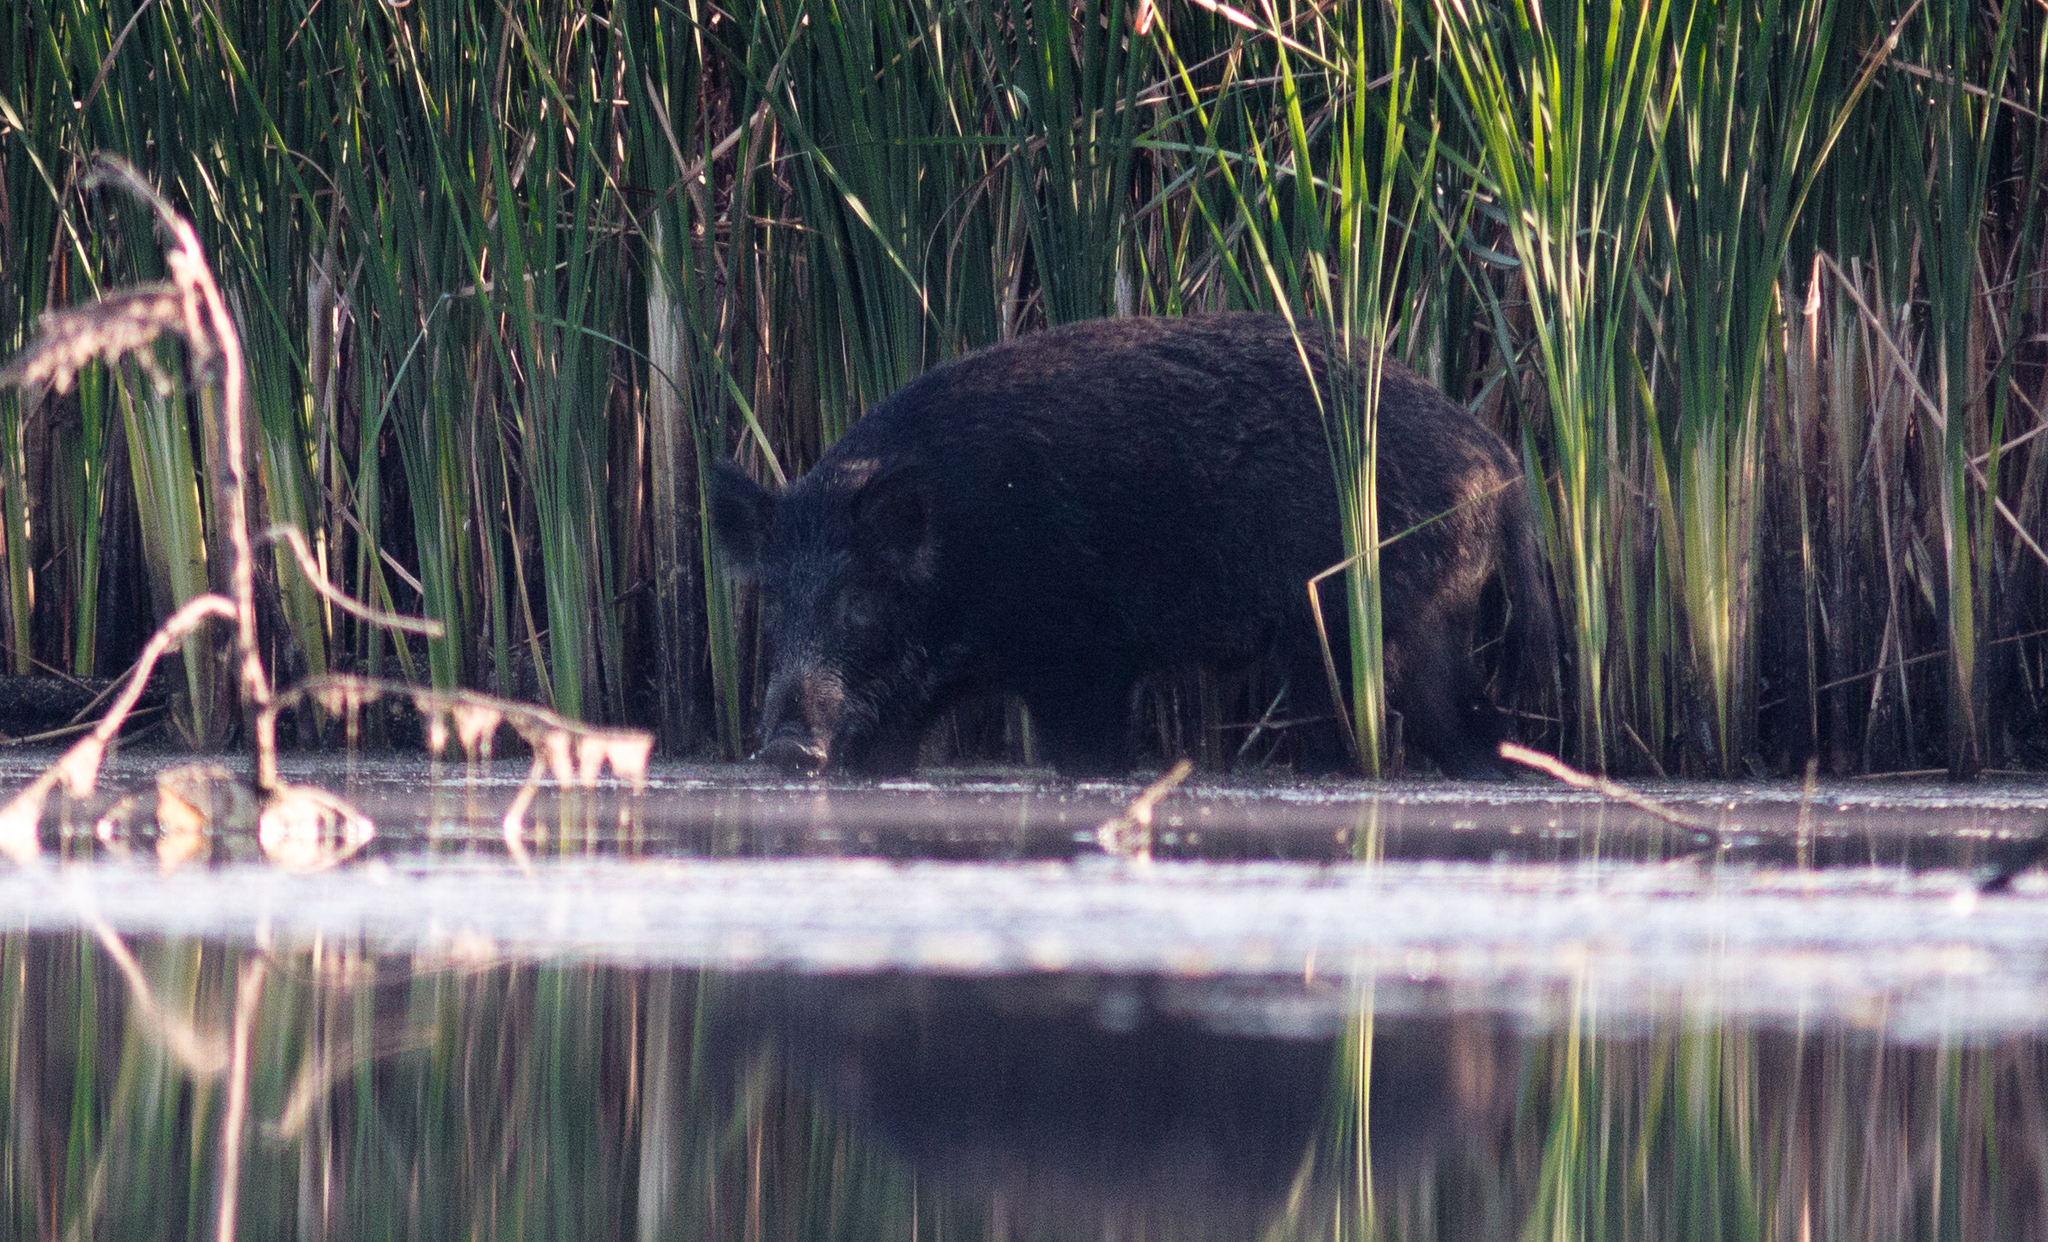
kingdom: Animalia
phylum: Chordata
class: Mammalia
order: Artiodactyla
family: Suidae
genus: Sus
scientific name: Sus scrofa
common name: Wild boar
